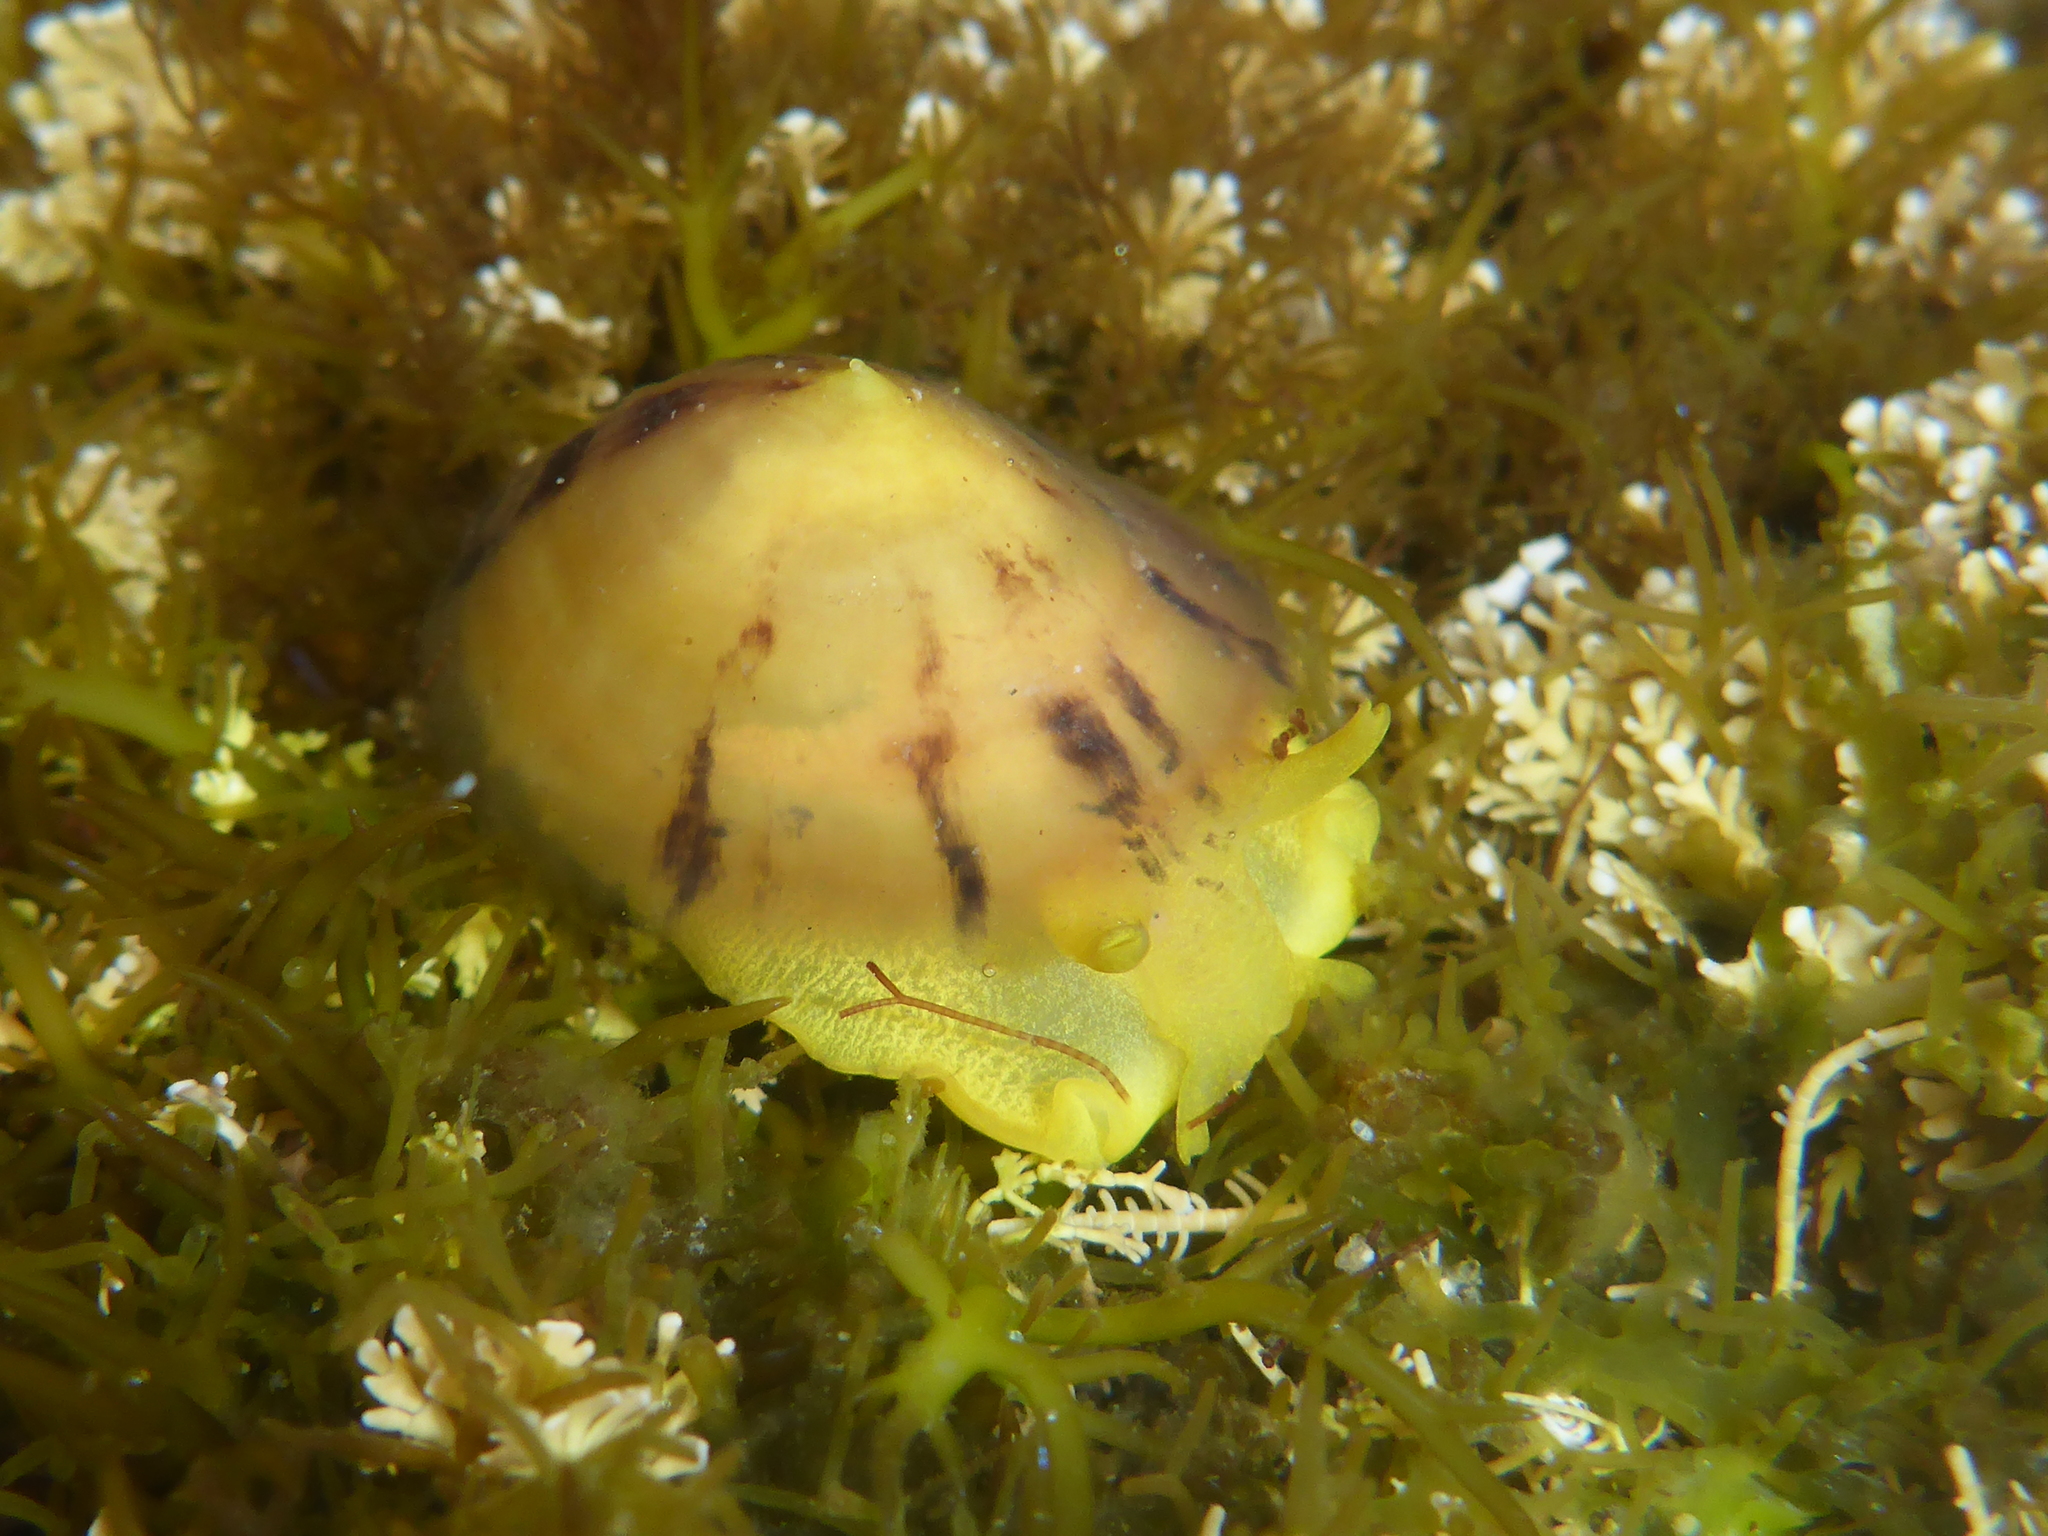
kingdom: Animalia
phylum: Mollusca
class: Gastropoda
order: Umbraculida
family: Tylodinidae
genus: Tylodina
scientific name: Tylodina fungina
